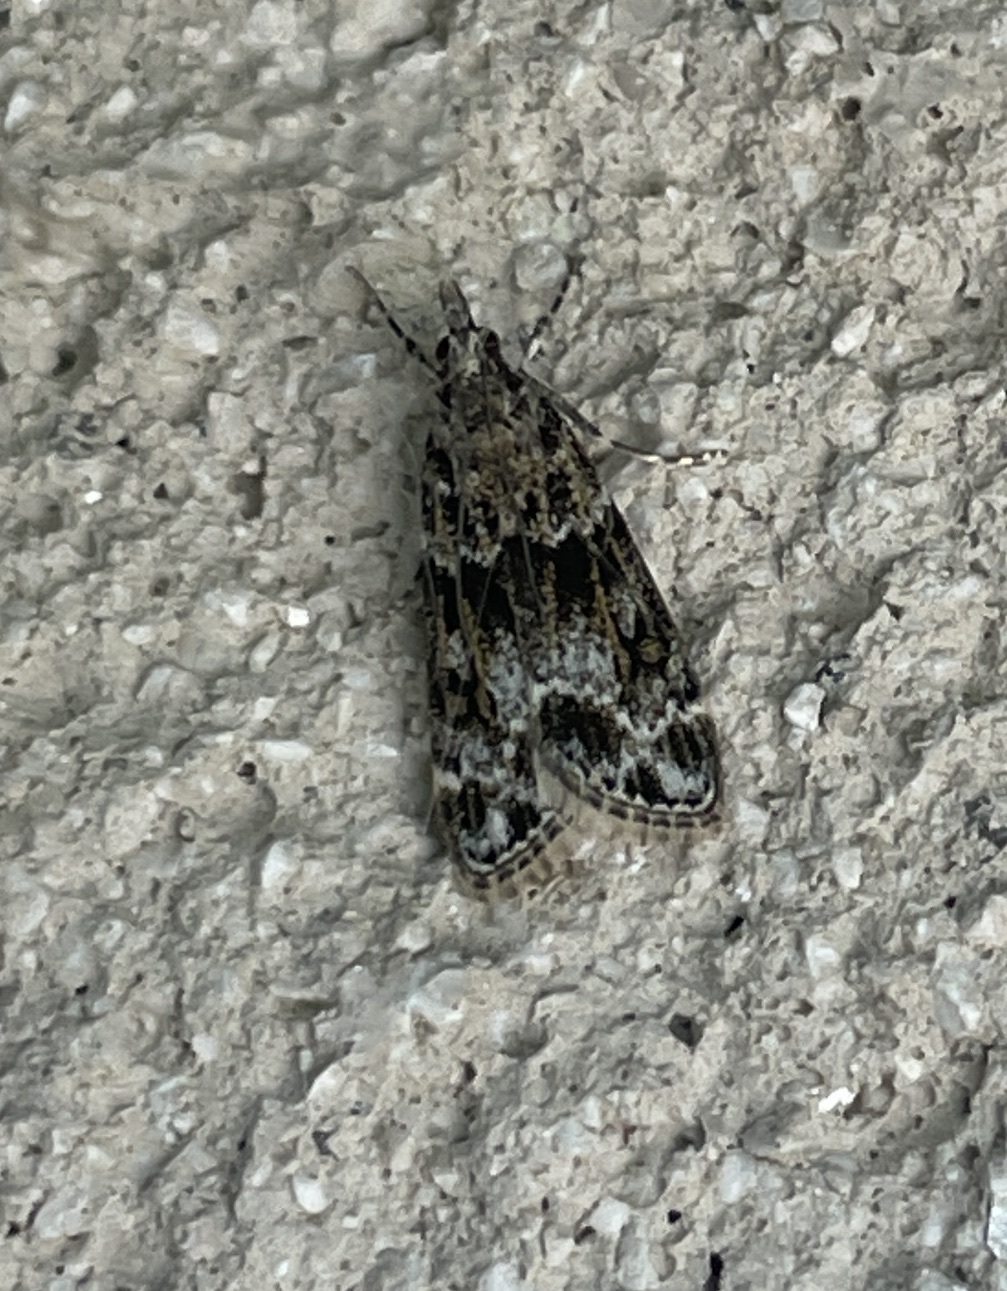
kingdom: Animalia
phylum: Arthropoda
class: Insecta
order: Lepidoptera
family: Crambidae
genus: Eudonia
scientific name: Eudonia mercurella
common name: Small grey
